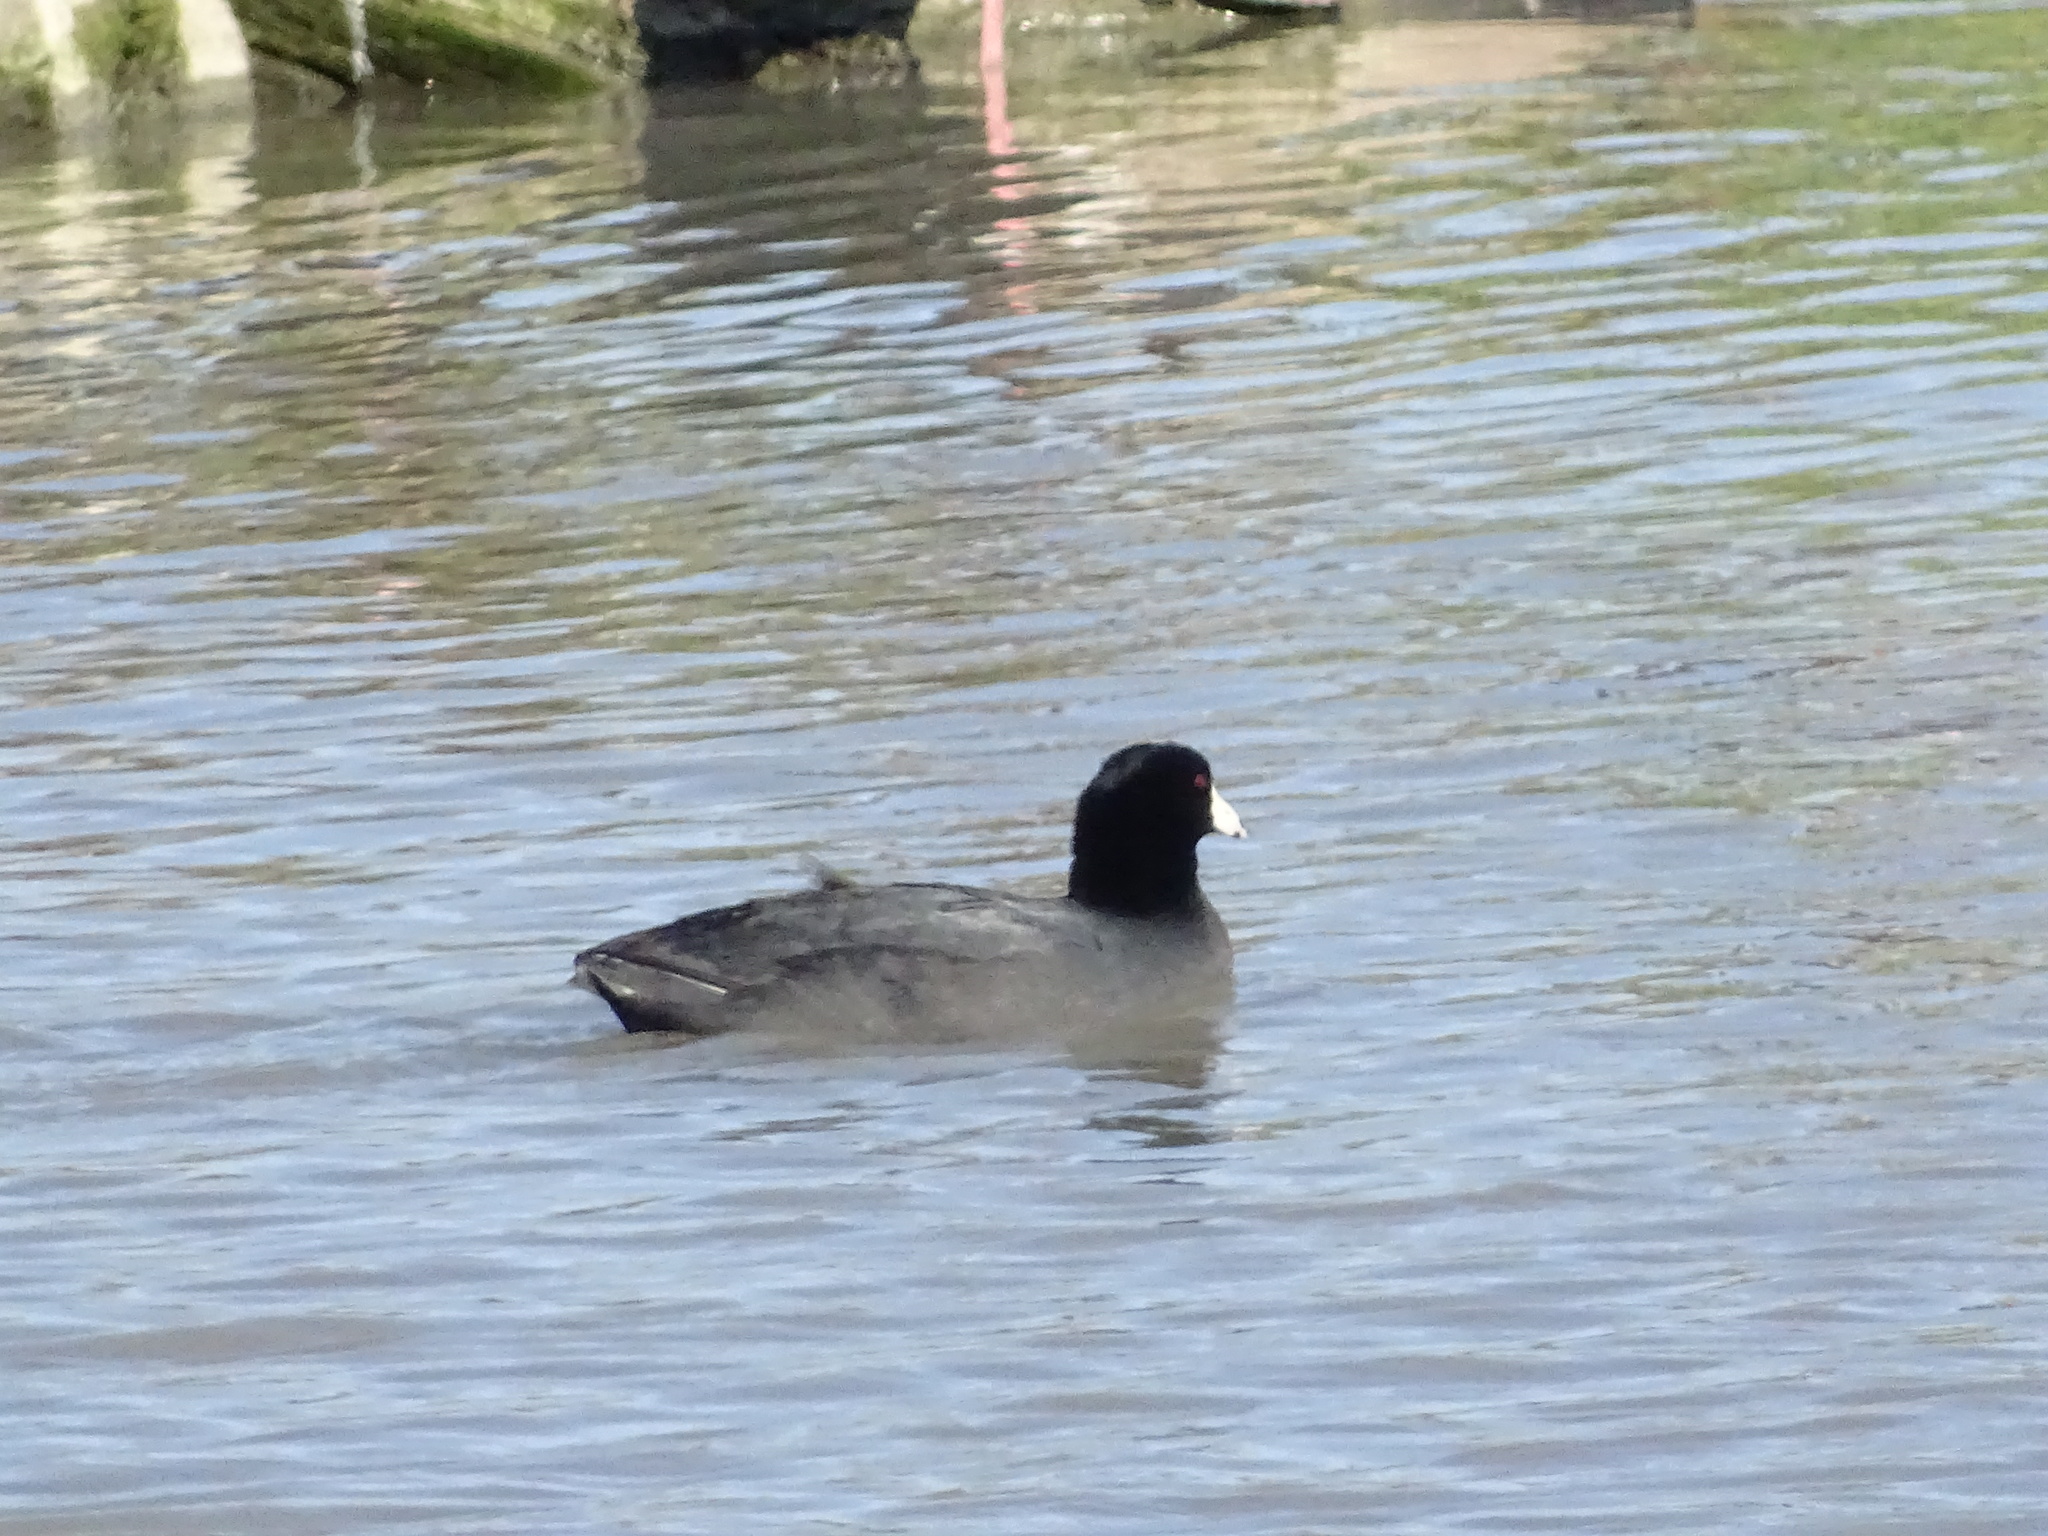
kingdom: Animalia
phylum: Chordata
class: Aves
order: Gruiformes
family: Rallidae
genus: Fulica
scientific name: Fulica americana
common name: American coot
